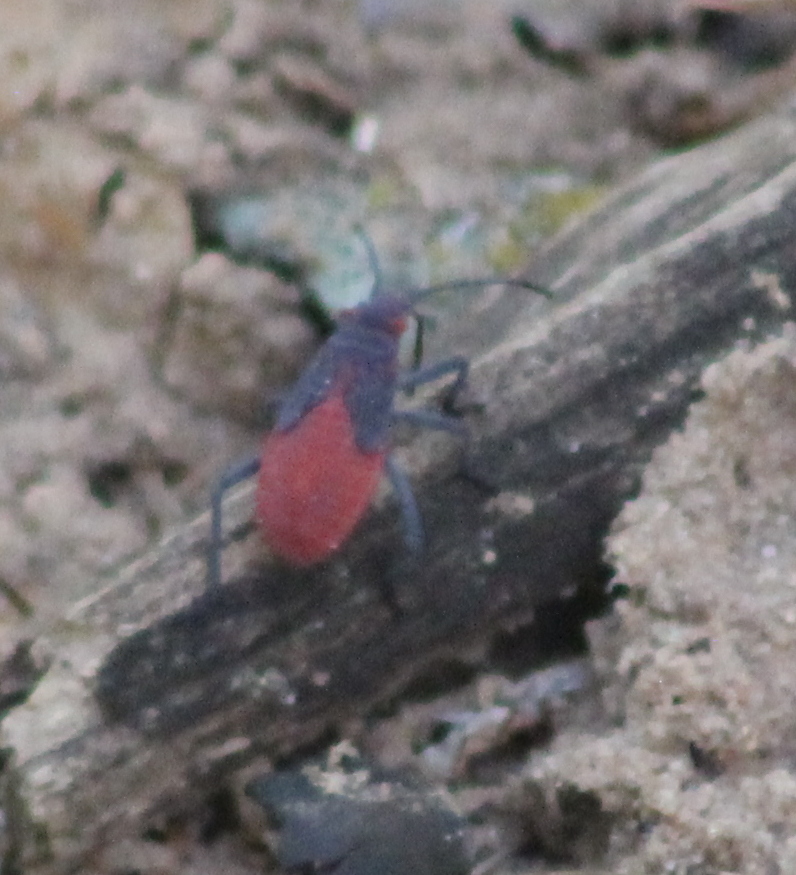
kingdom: Animalia
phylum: Arthropoda
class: Insecta
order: Hemiptera
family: Rhopalidae
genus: Jadera
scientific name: Jadera haematoloma
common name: Red-shouldered bug
